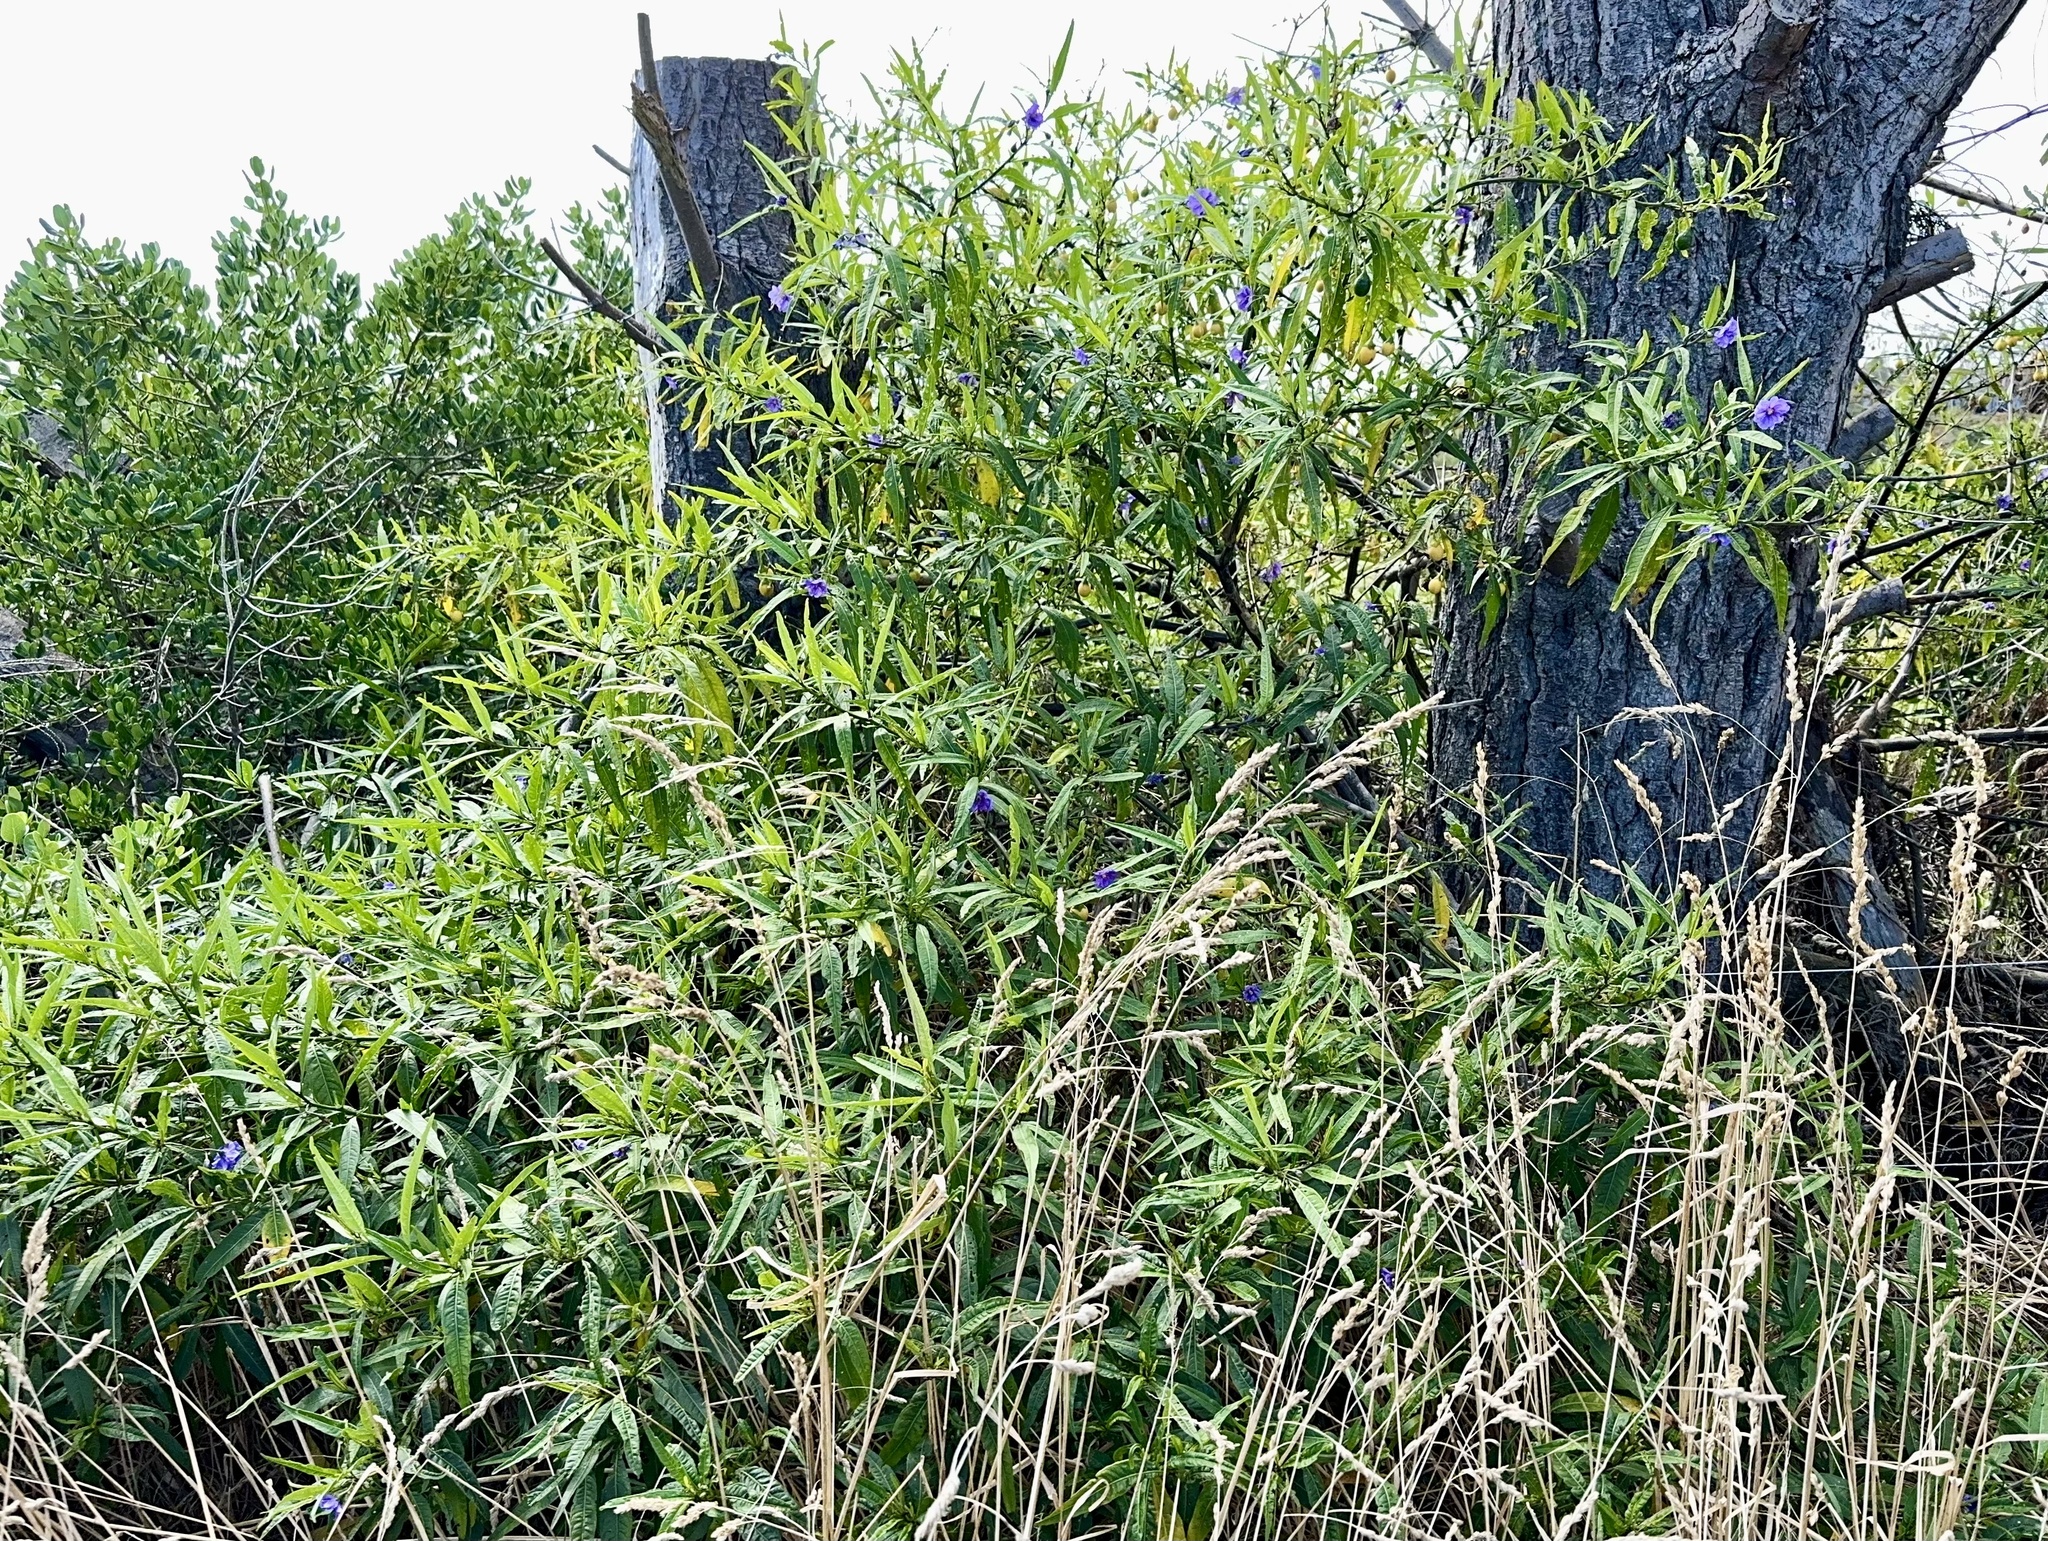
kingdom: Plantae
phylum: Tracheophyta
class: Magnoliopsida
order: Solanales
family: Solanaceae
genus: Solanum
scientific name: Solanum laciniatum
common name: Kangaroo-apple
